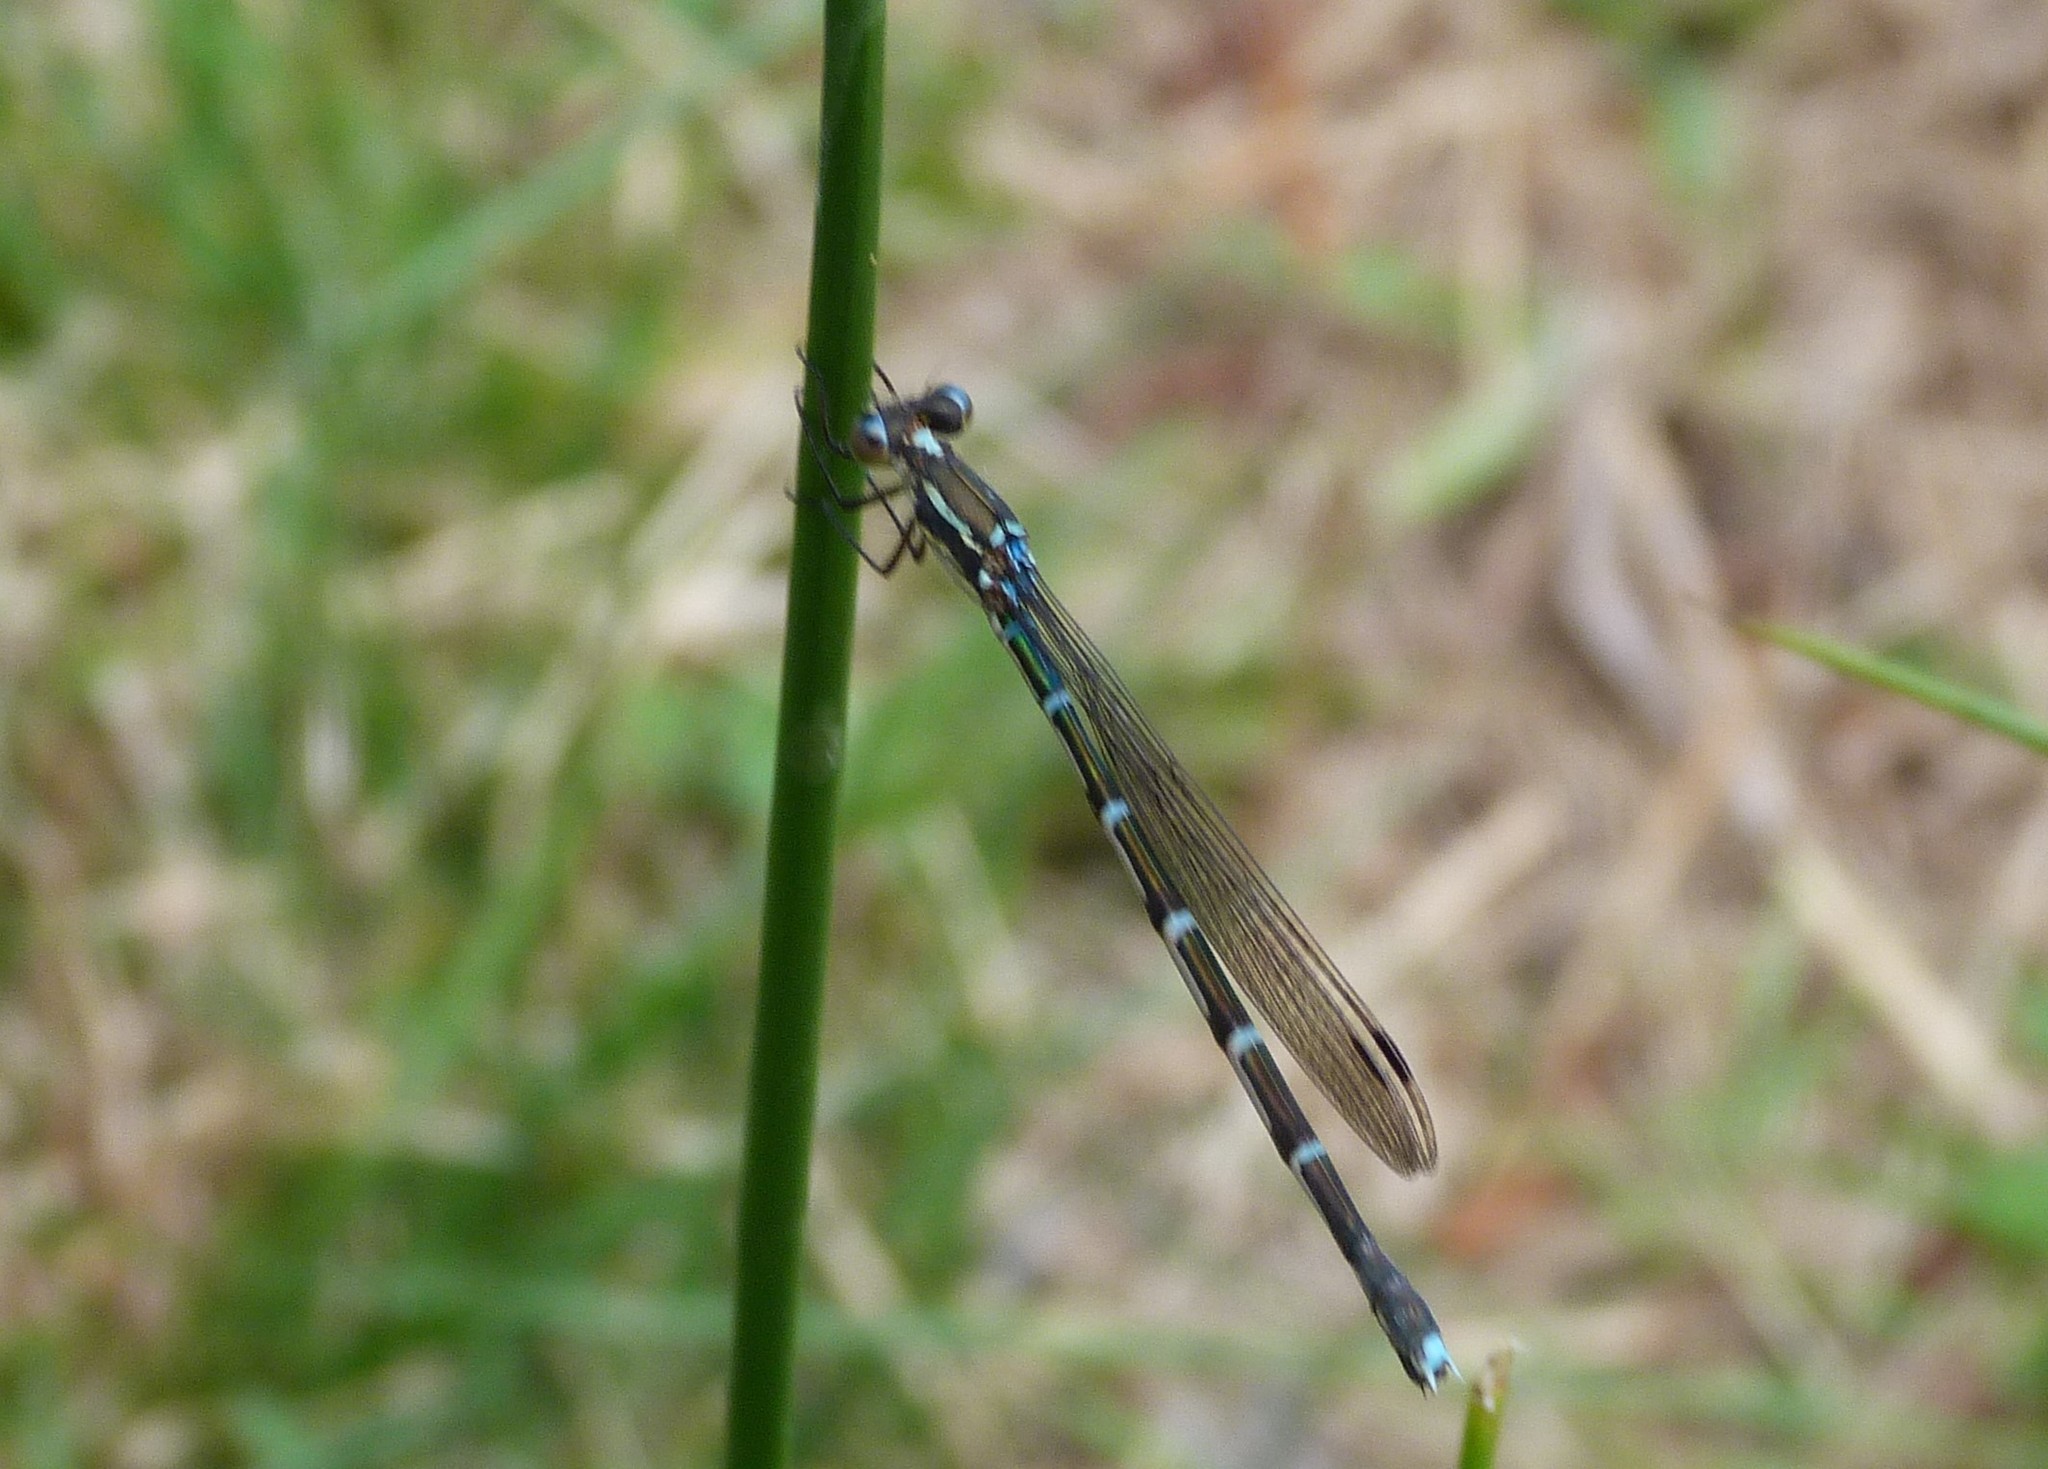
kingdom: Animalia
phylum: Arthropoda
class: Insecta
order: Odonata
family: Lestidae
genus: Austrolestes
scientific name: Austrolestes colensonis
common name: Blue damselfly
